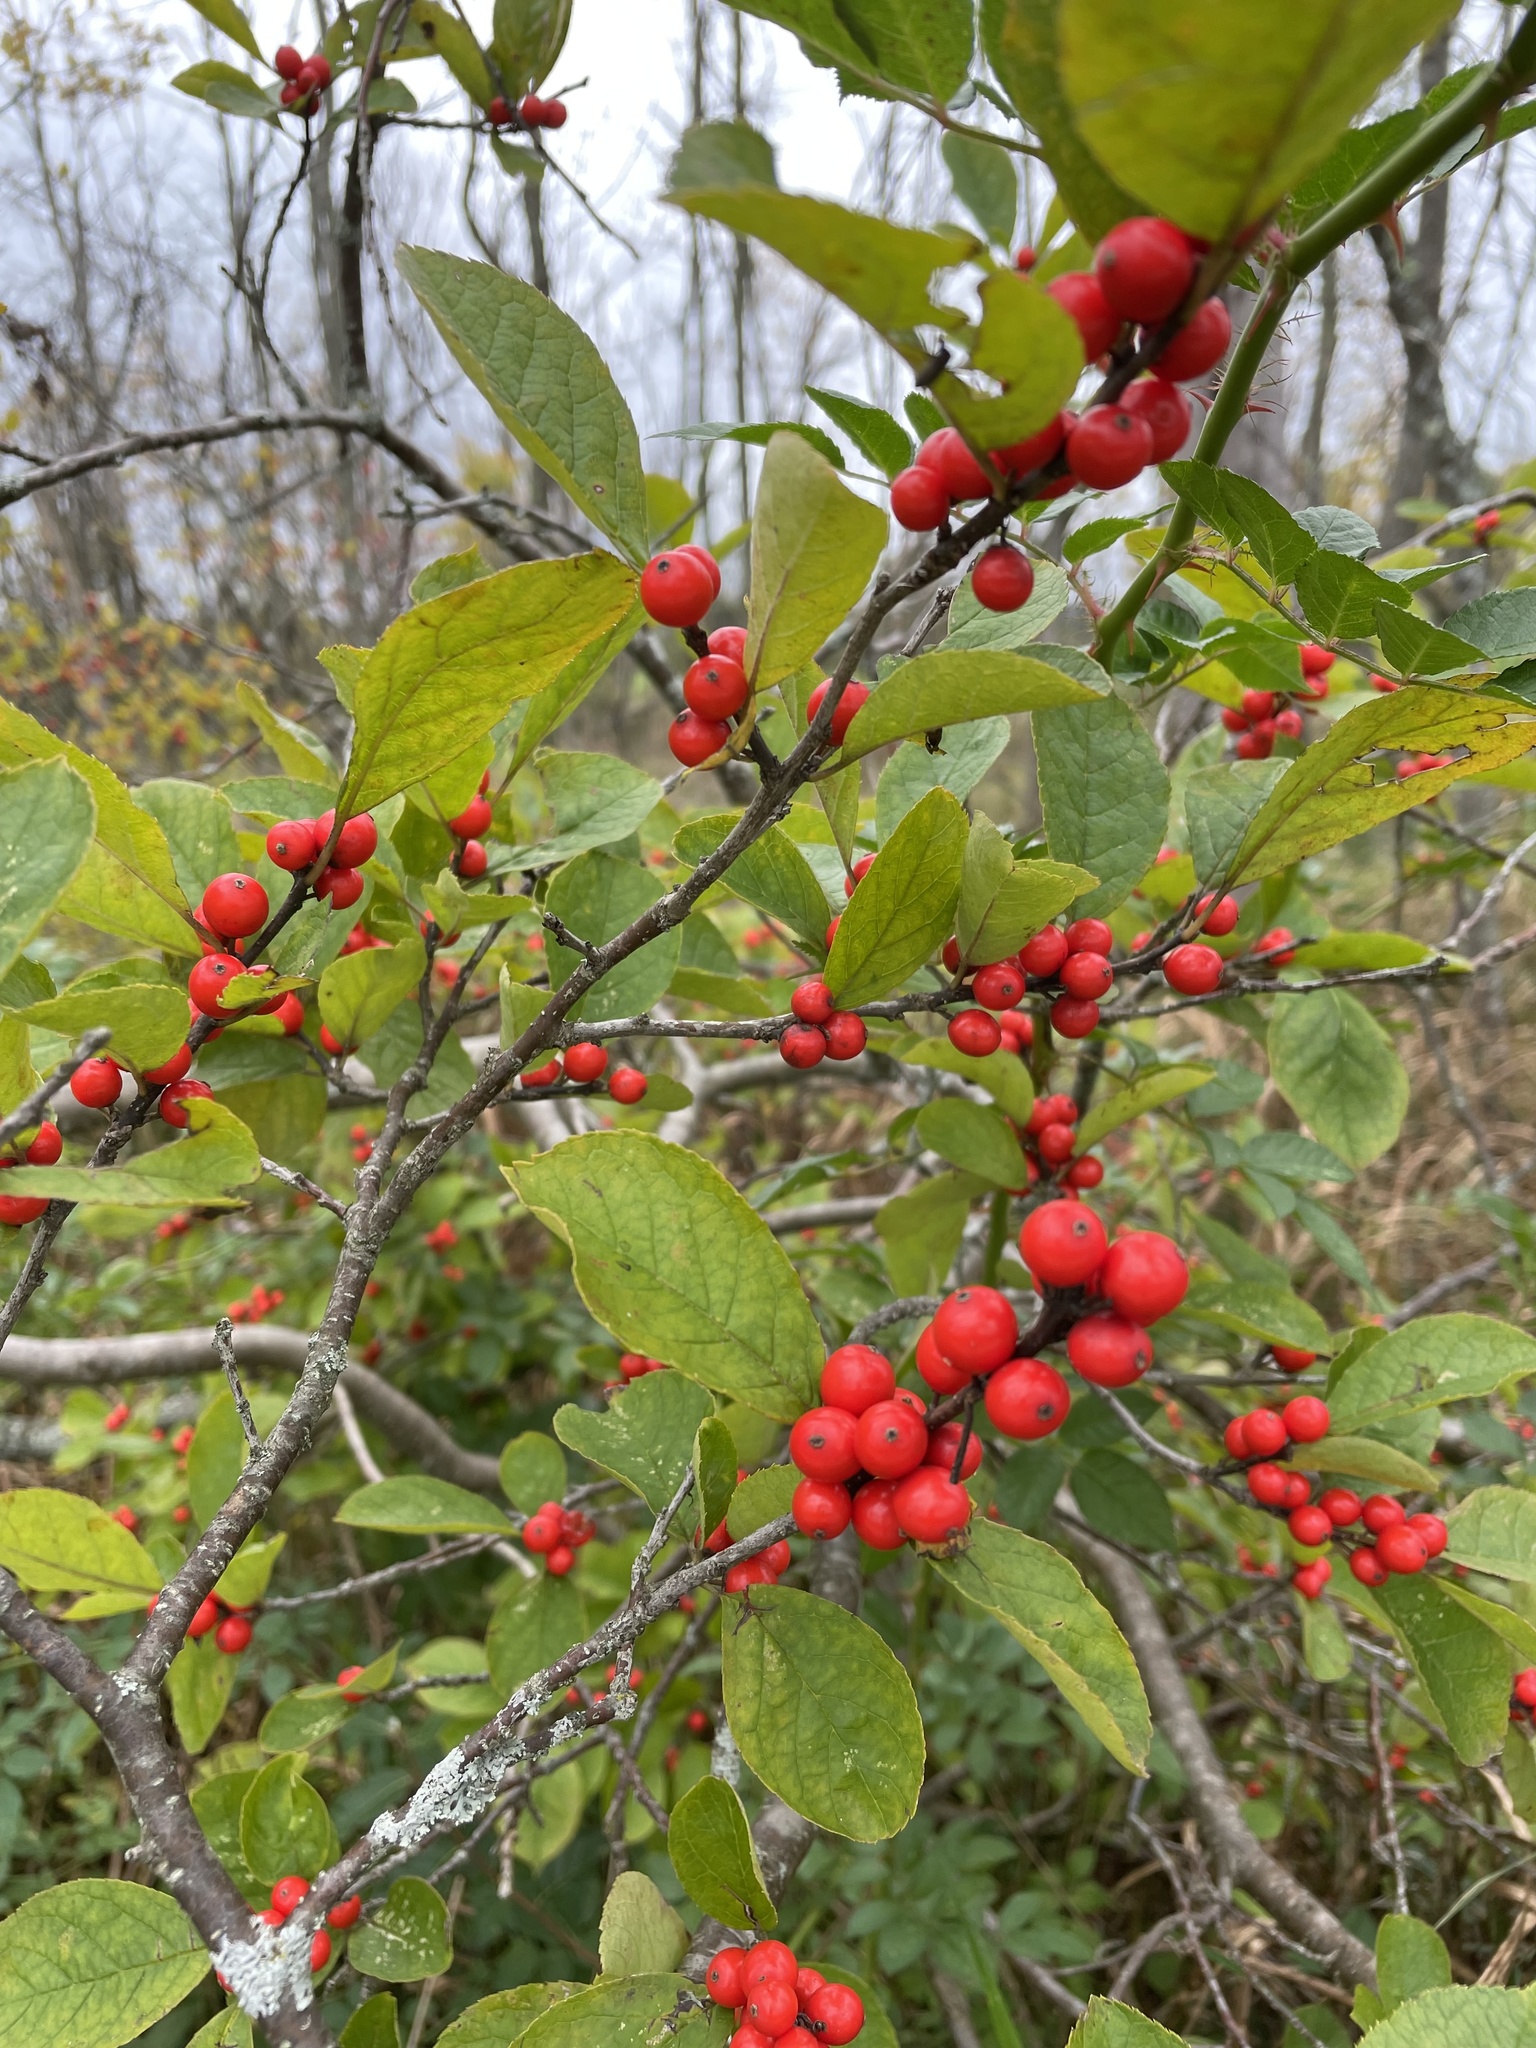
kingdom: Plantae
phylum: Tracheophyta
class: Magnoliopsida
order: Aquifoliales
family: Aquifoliaceae
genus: Ilex
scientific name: Ilex verticillata
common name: Virginia winterberry
